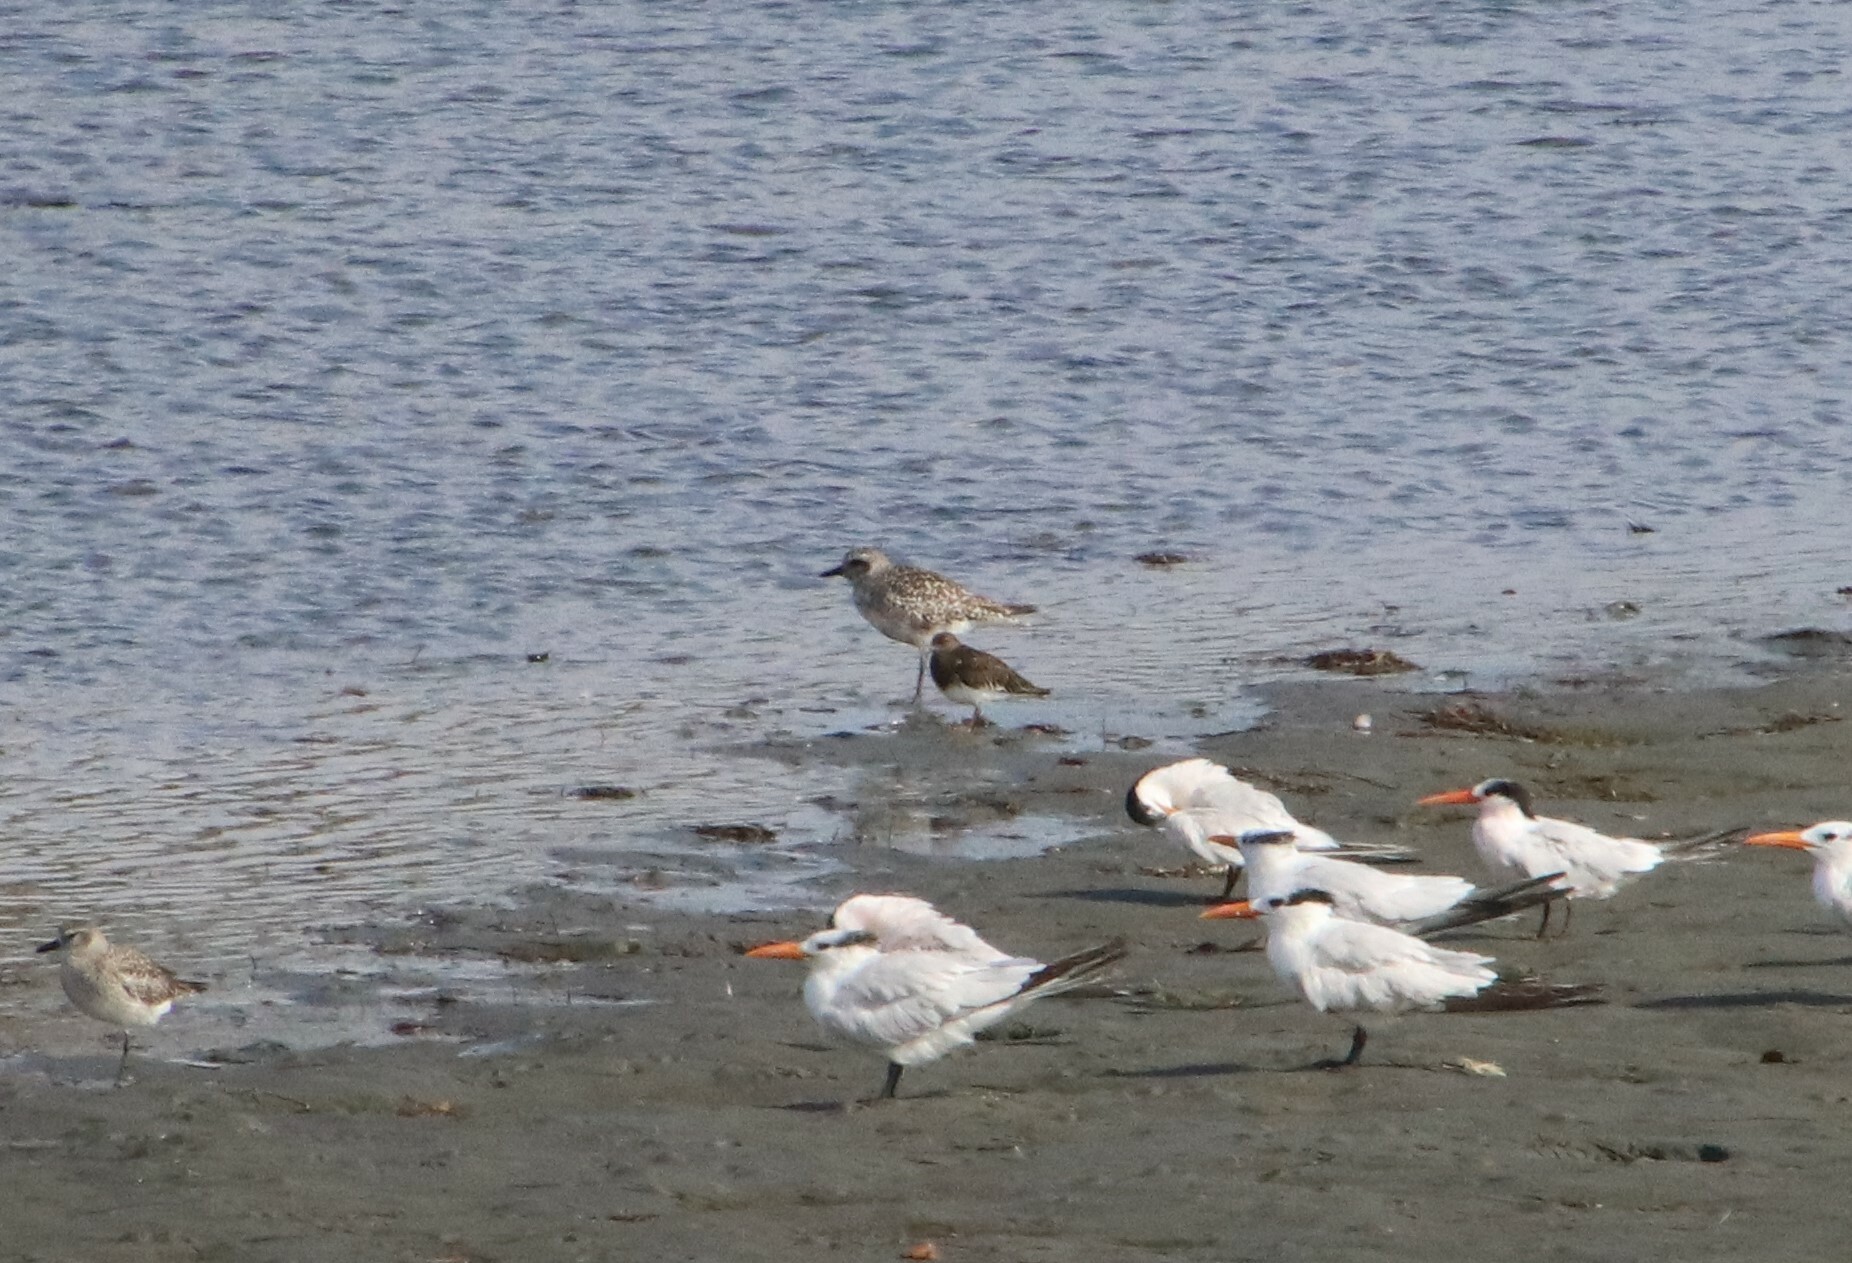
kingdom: Animalia
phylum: Chordata
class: Aves
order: Charadriiformes
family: Scolopacidae
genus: Arenaria
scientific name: Arenaria melanocephala
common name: Black turnstone
